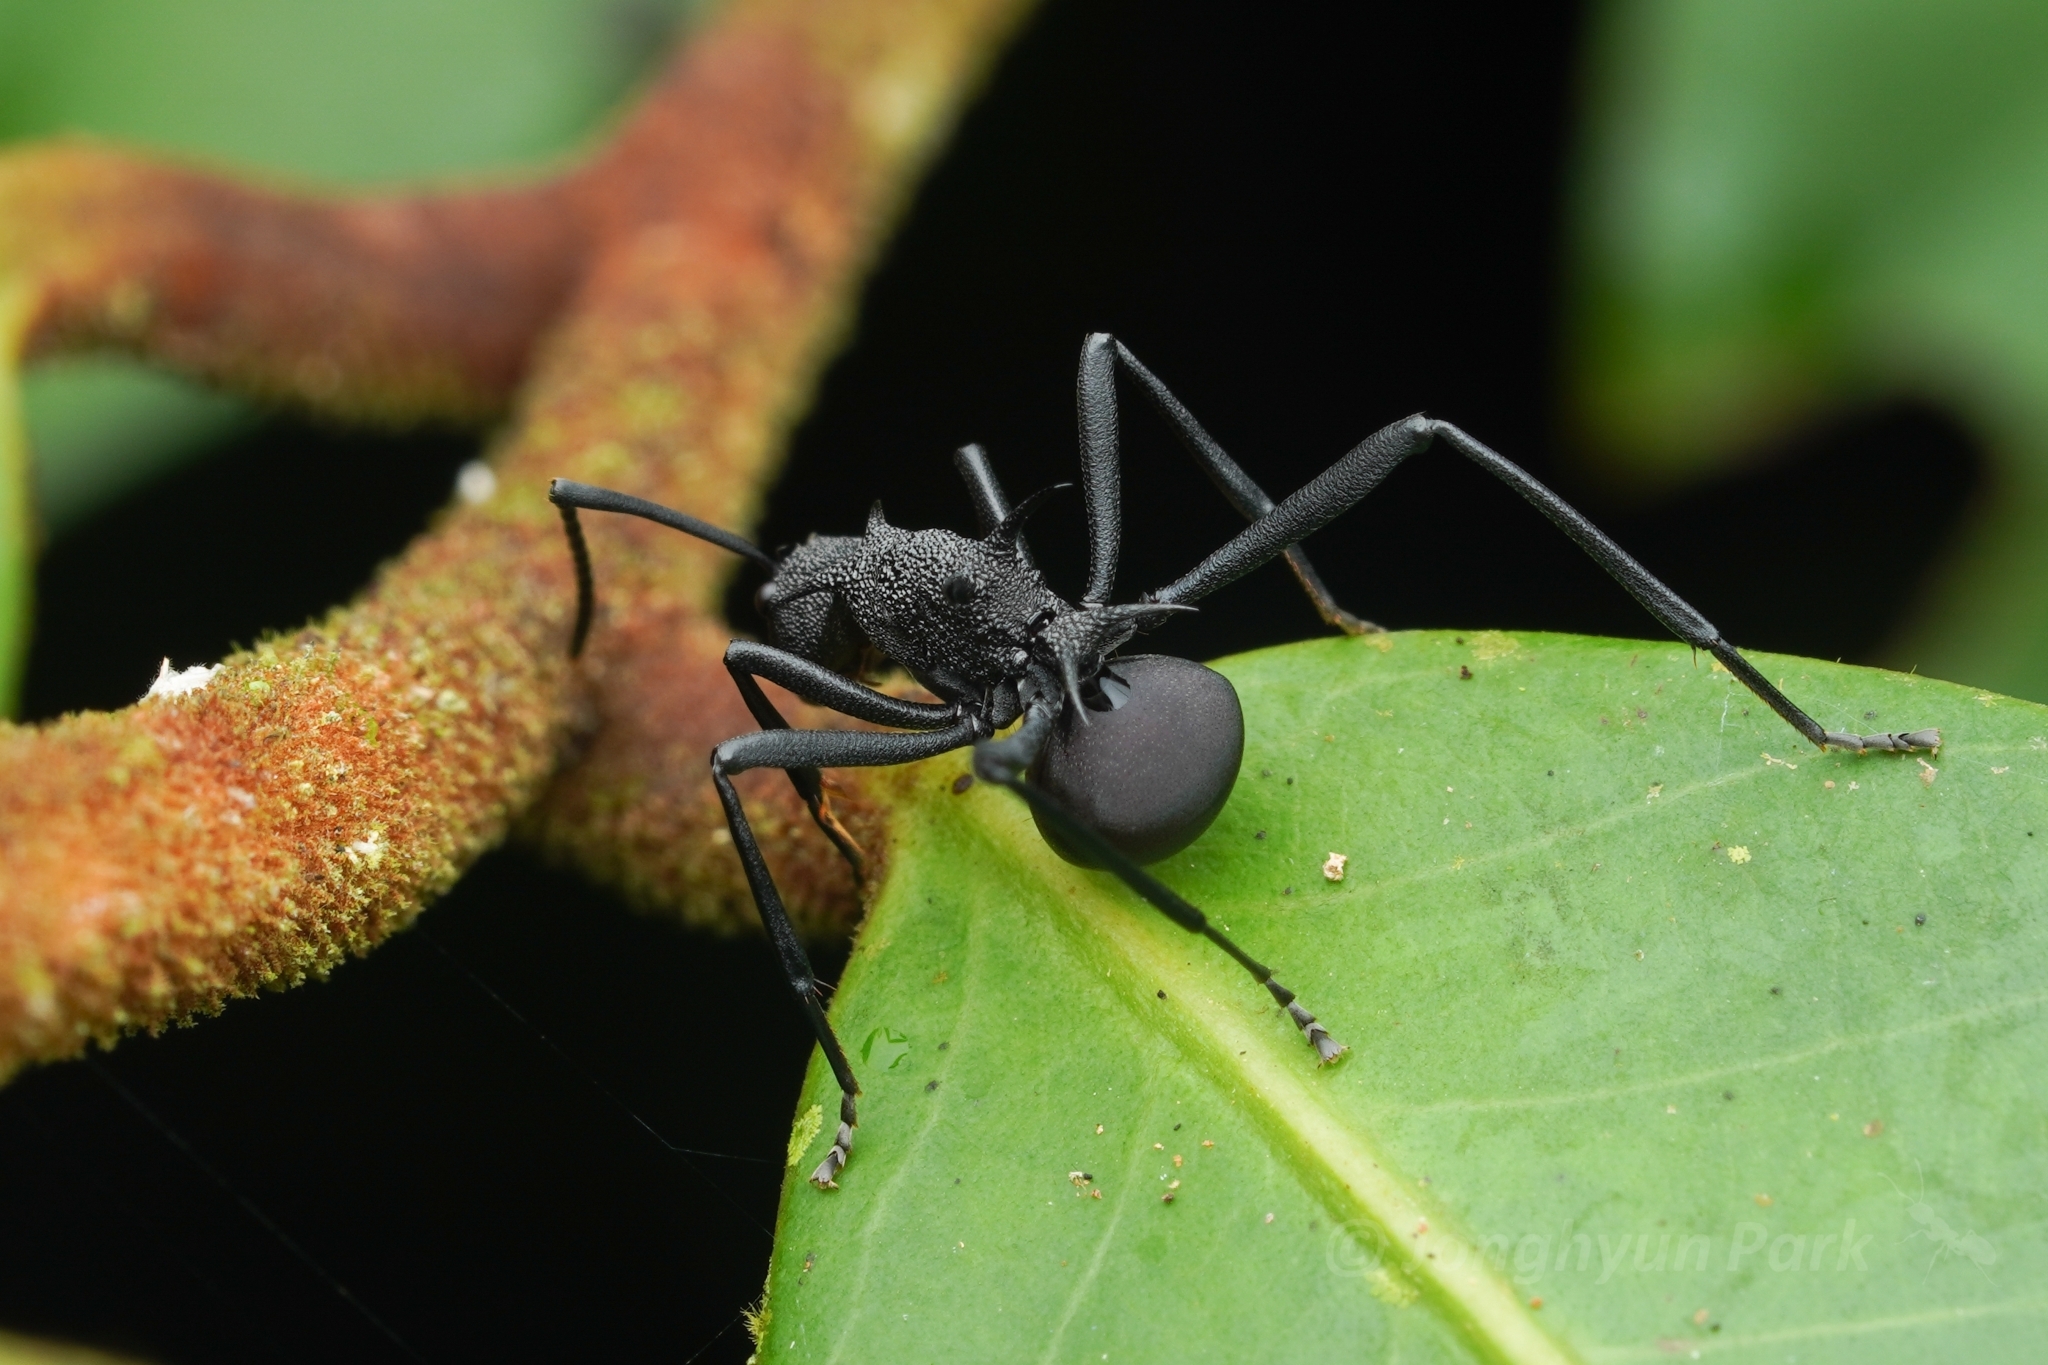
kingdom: Animalia
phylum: Arthropoda
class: Insecta
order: Hymenoptera
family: Formicidae
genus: Polyrhachis
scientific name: Polyrhachis armata
